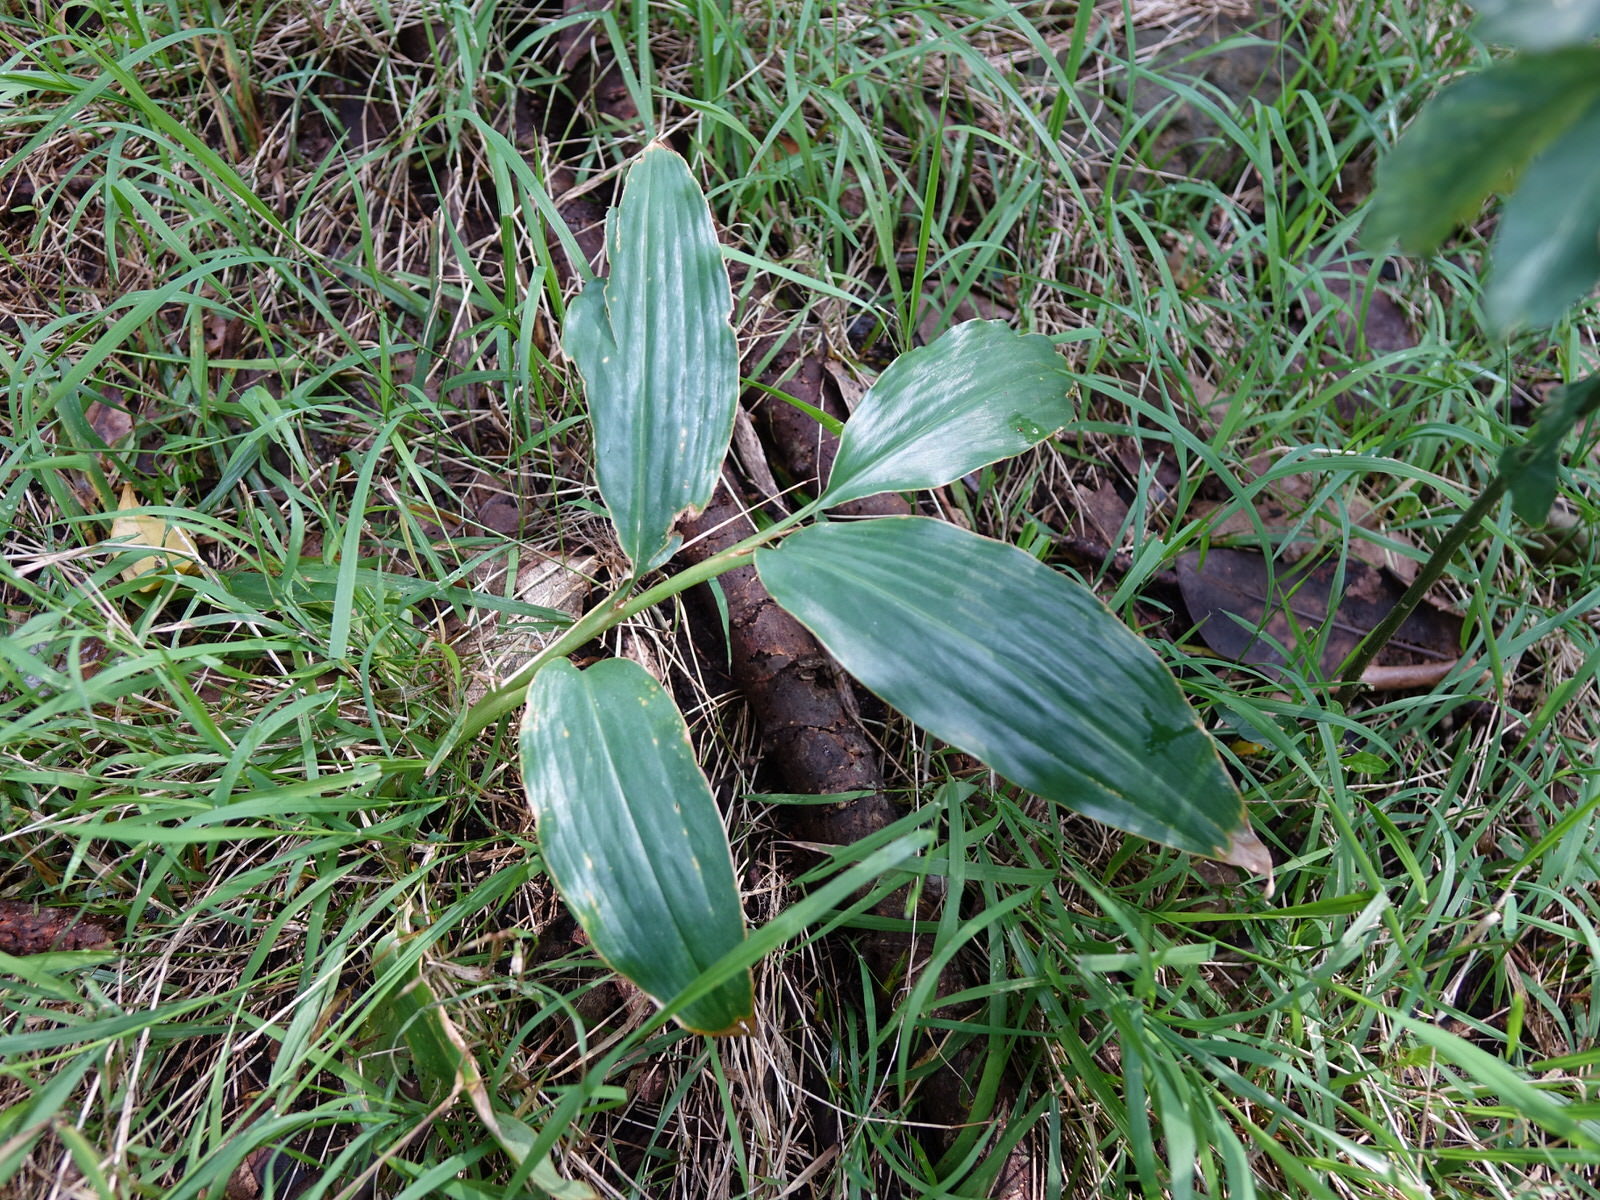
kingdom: Plantae
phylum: Tracheophyta
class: Liliopsida
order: Zingiberales
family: Zingiberaceae
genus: Hedychium
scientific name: Hedychium gardnerianum
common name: Himalayan ginger
